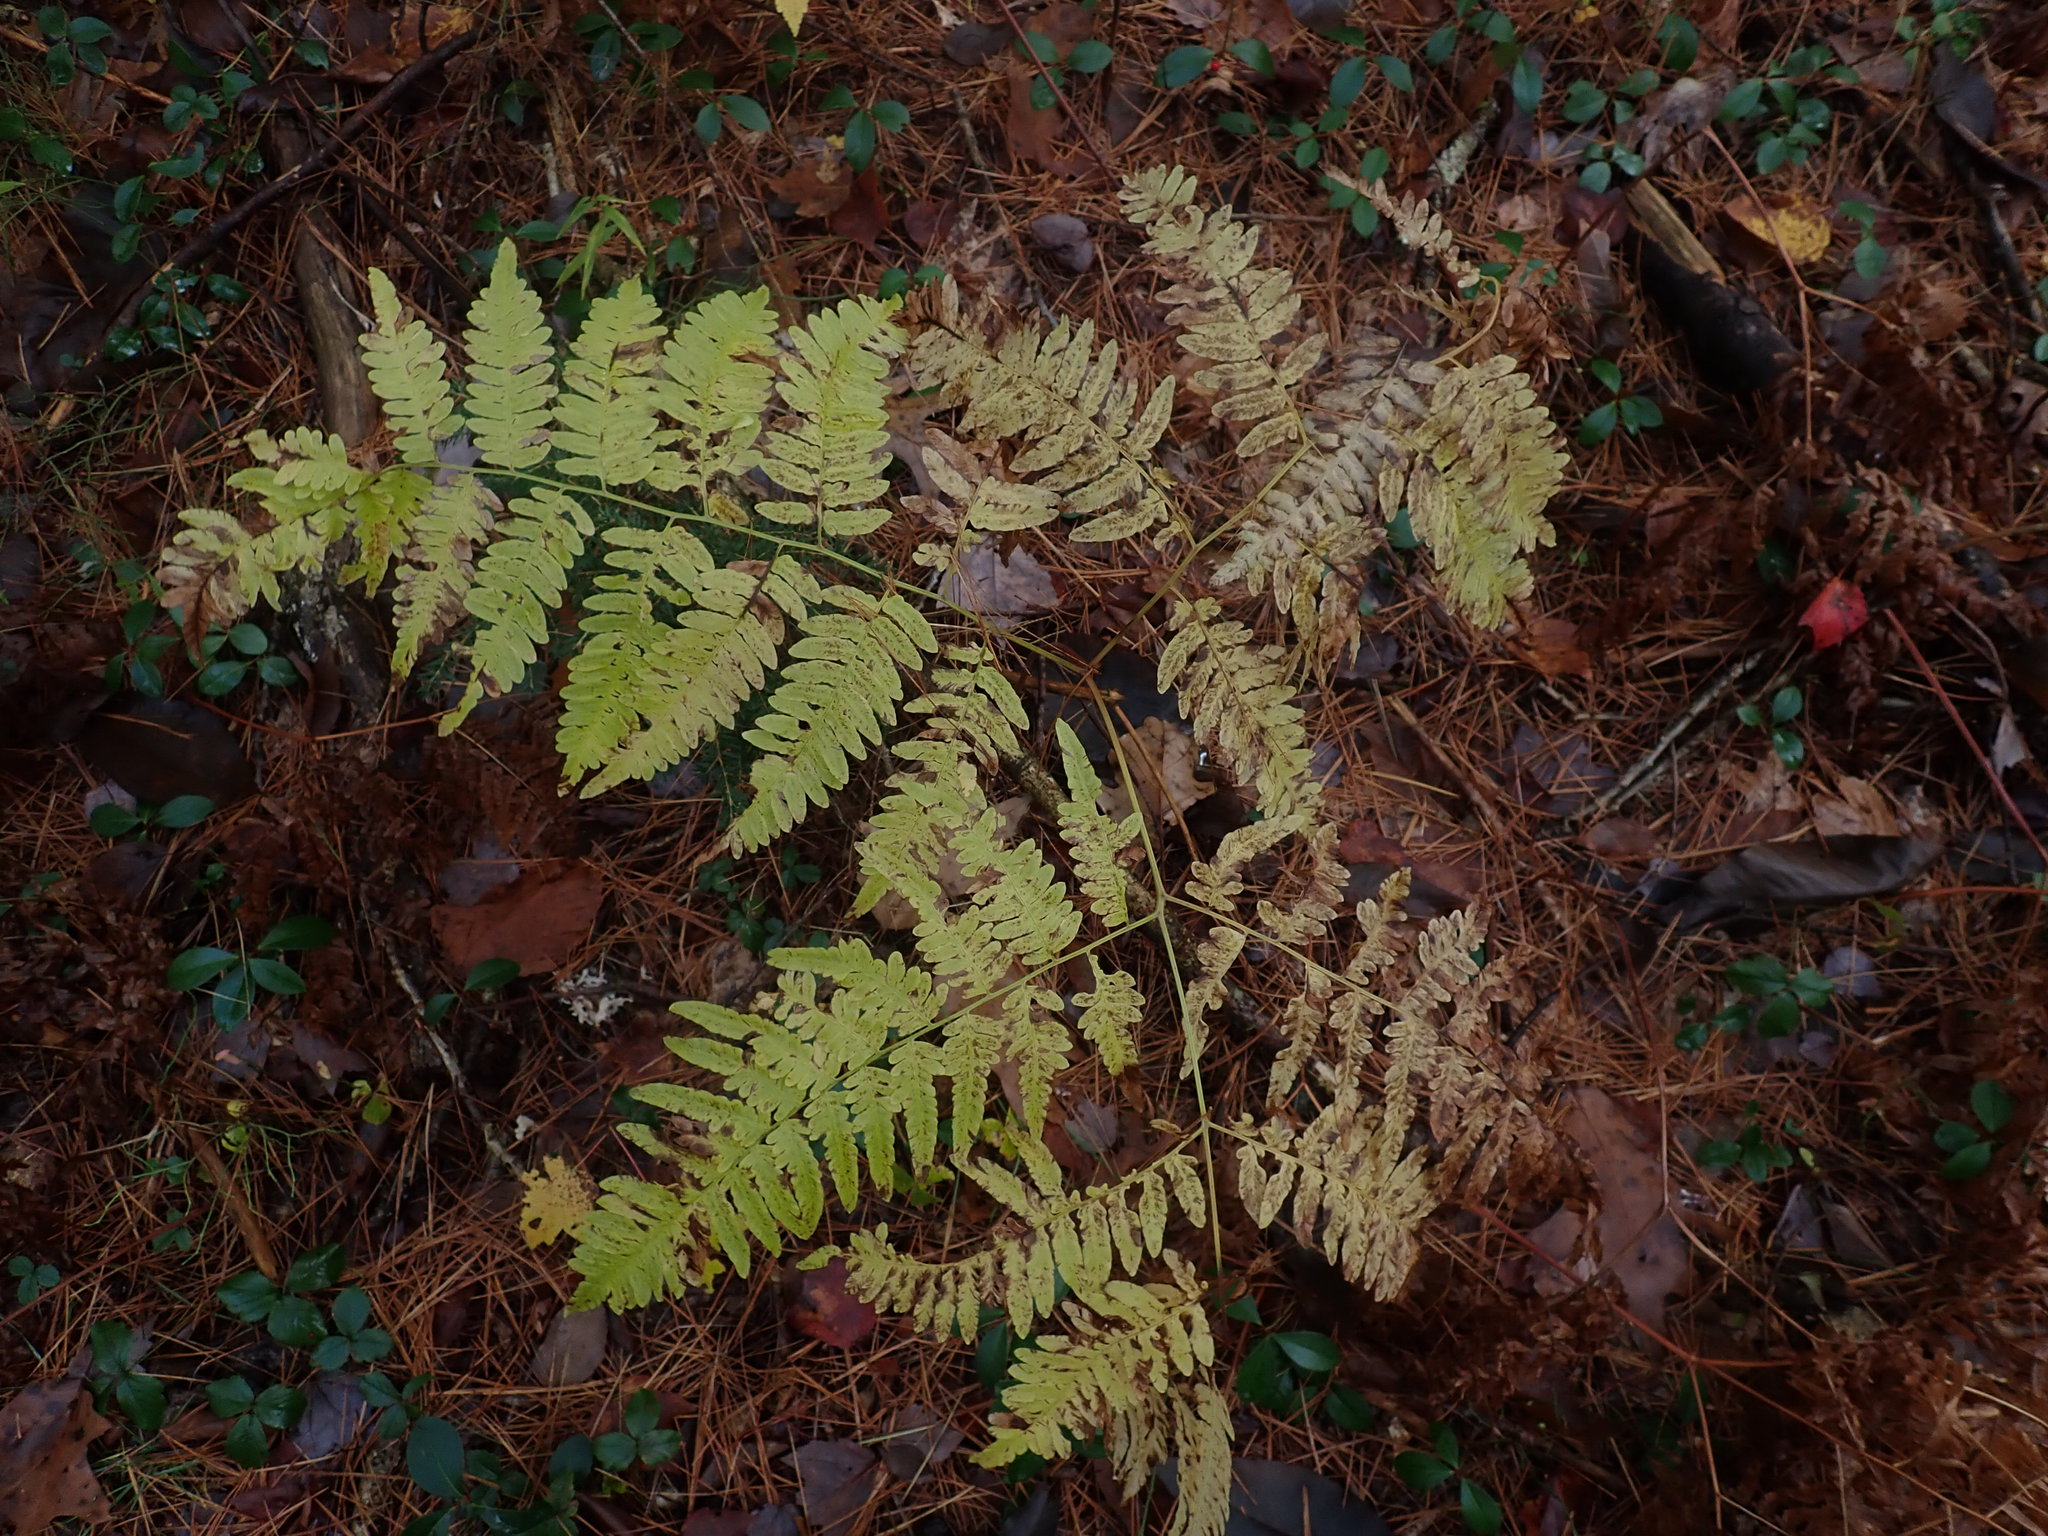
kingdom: Plantae
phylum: Tracheophyta
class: Polypodiopsida
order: Polypodiales
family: Dennstaedtiaceae
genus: Pteridium
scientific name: Pteridium aquilinum
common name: Bracken
